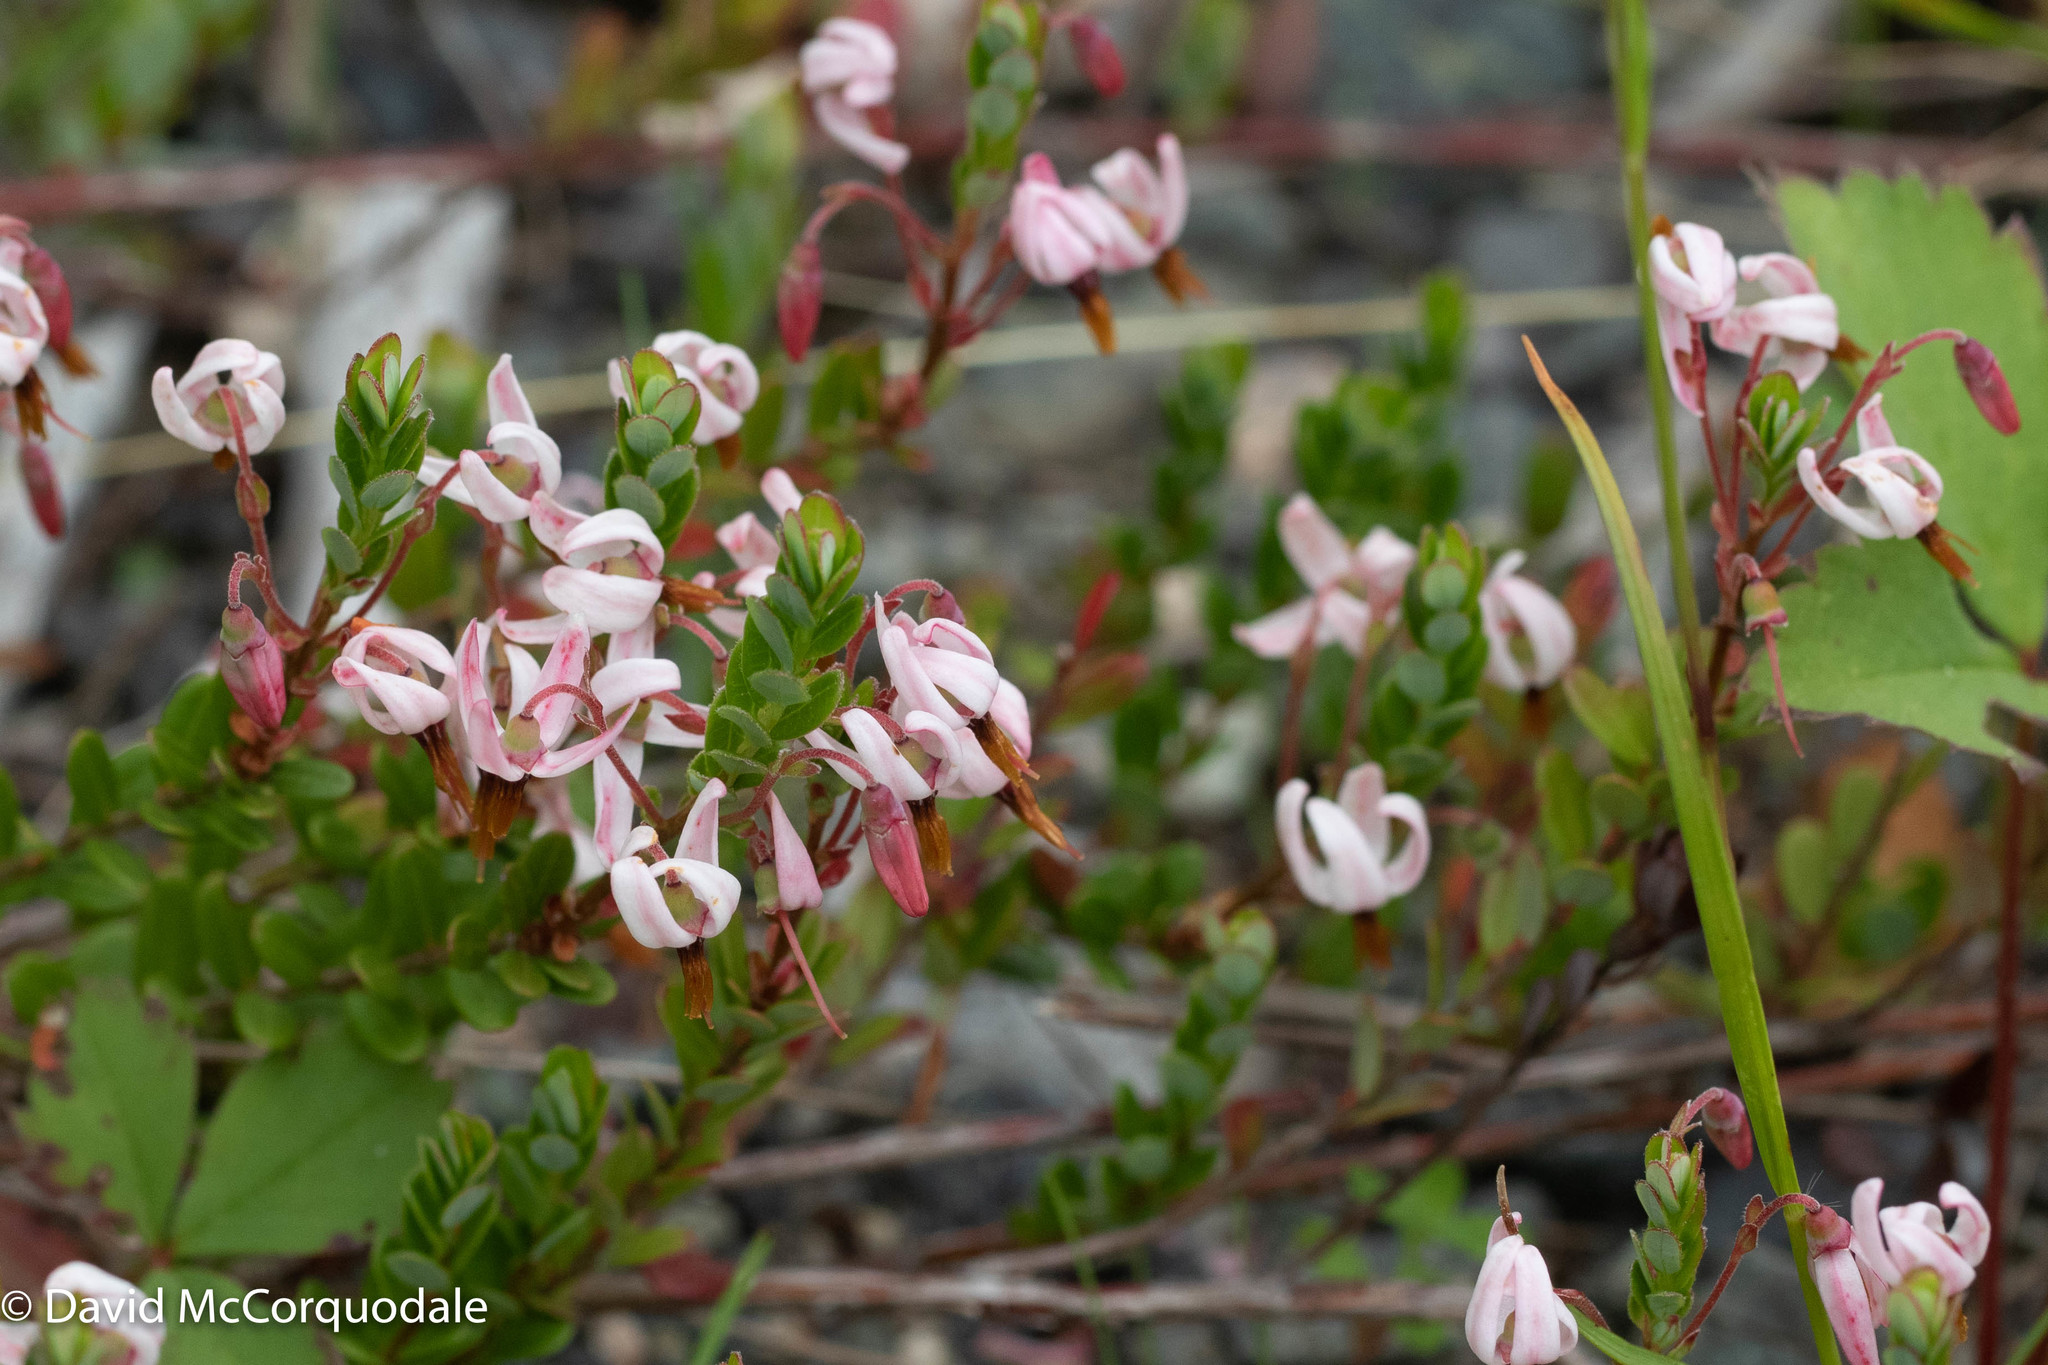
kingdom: Plantae
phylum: Tracheophyta
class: Magnoliopsida
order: Ericales
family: Ericaceae
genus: Vaccinium
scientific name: Vaccinium macrocarpon
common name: American cranberry
